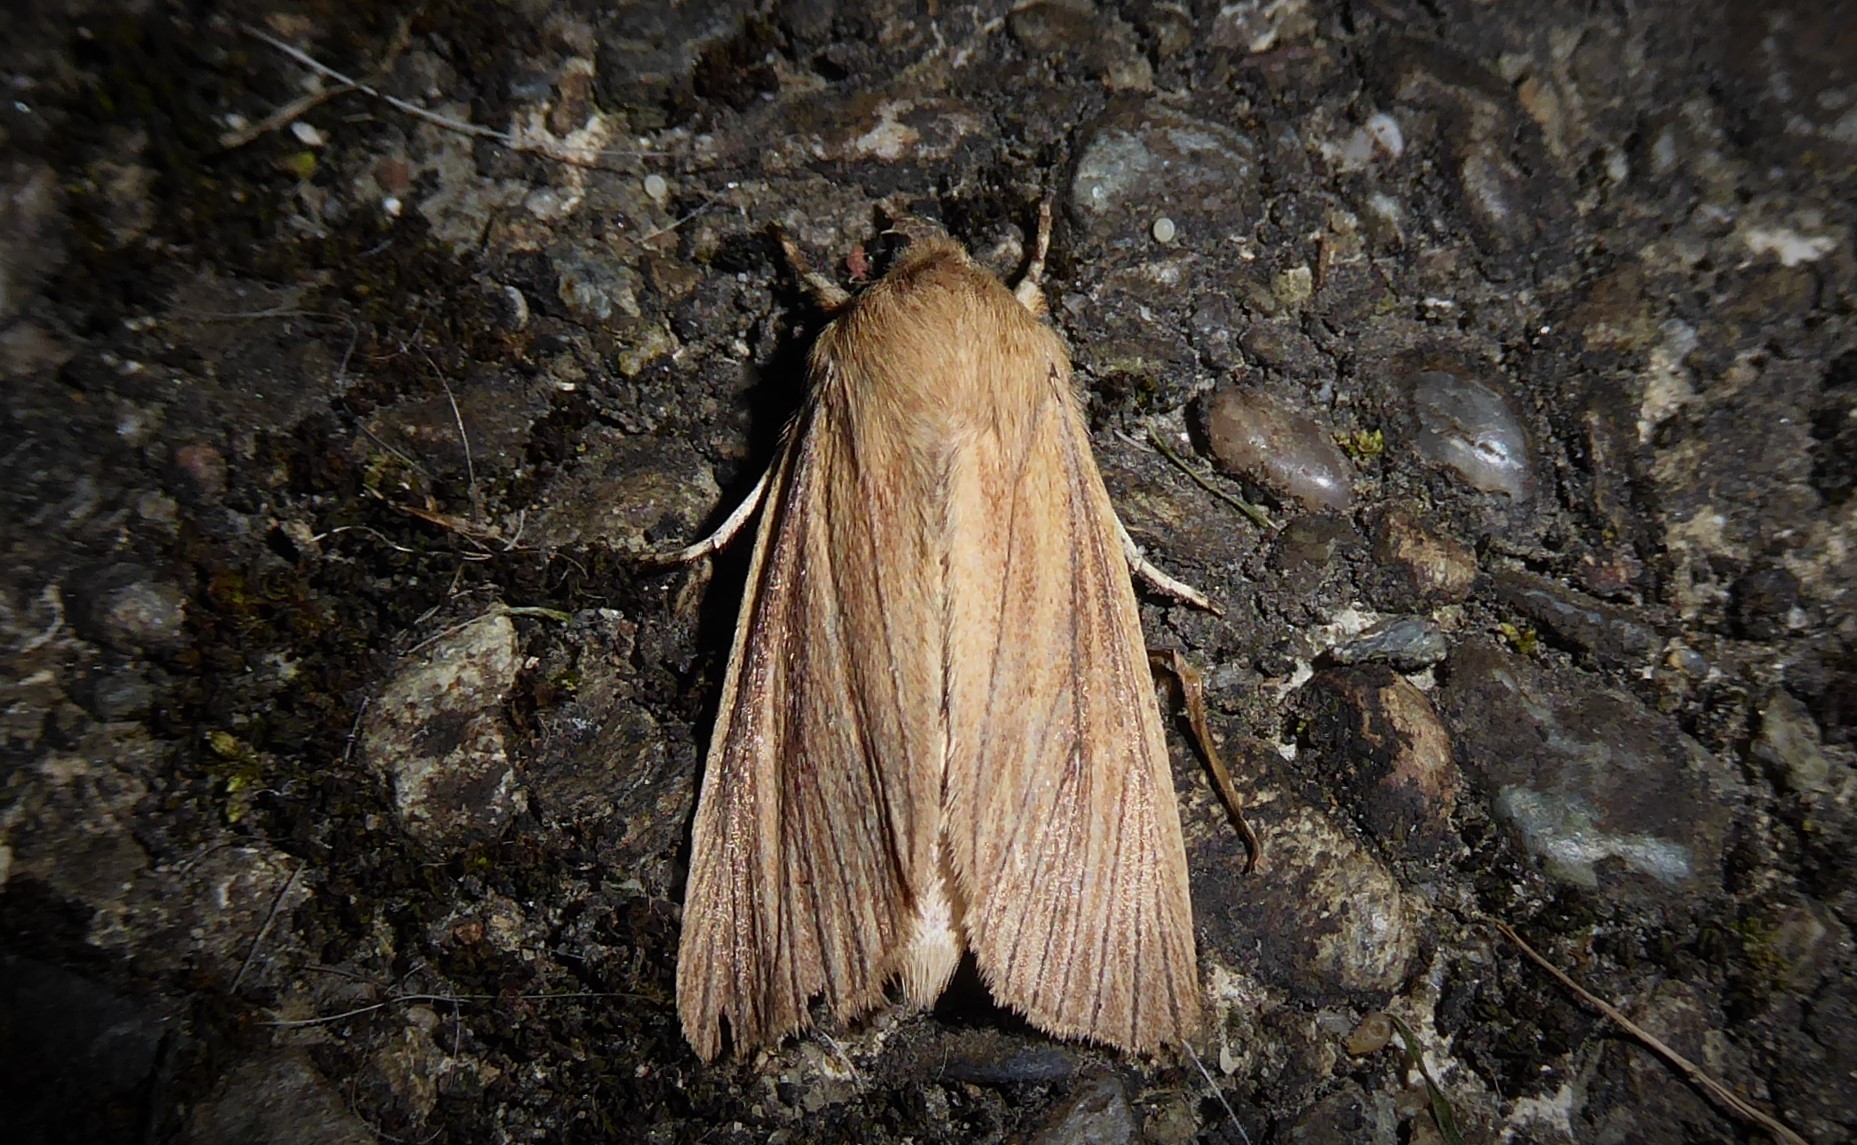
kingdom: Animalia
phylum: Arthropoda
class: Insecta
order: Lepidoptera
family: Noctuidae
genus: Ichneutica
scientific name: Ichneutica arotis
